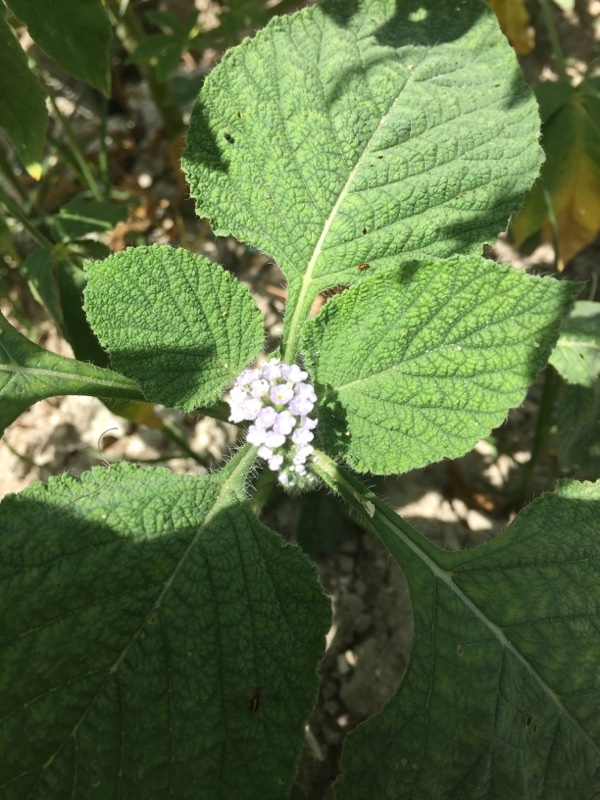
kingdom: Plantae
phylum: Tracheophyta
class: Magnoliopsida
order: Boraginales
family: Heliotropiaceae
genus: Heliotropium
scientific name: Heliotropium indicum
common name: Indian heliotrope
